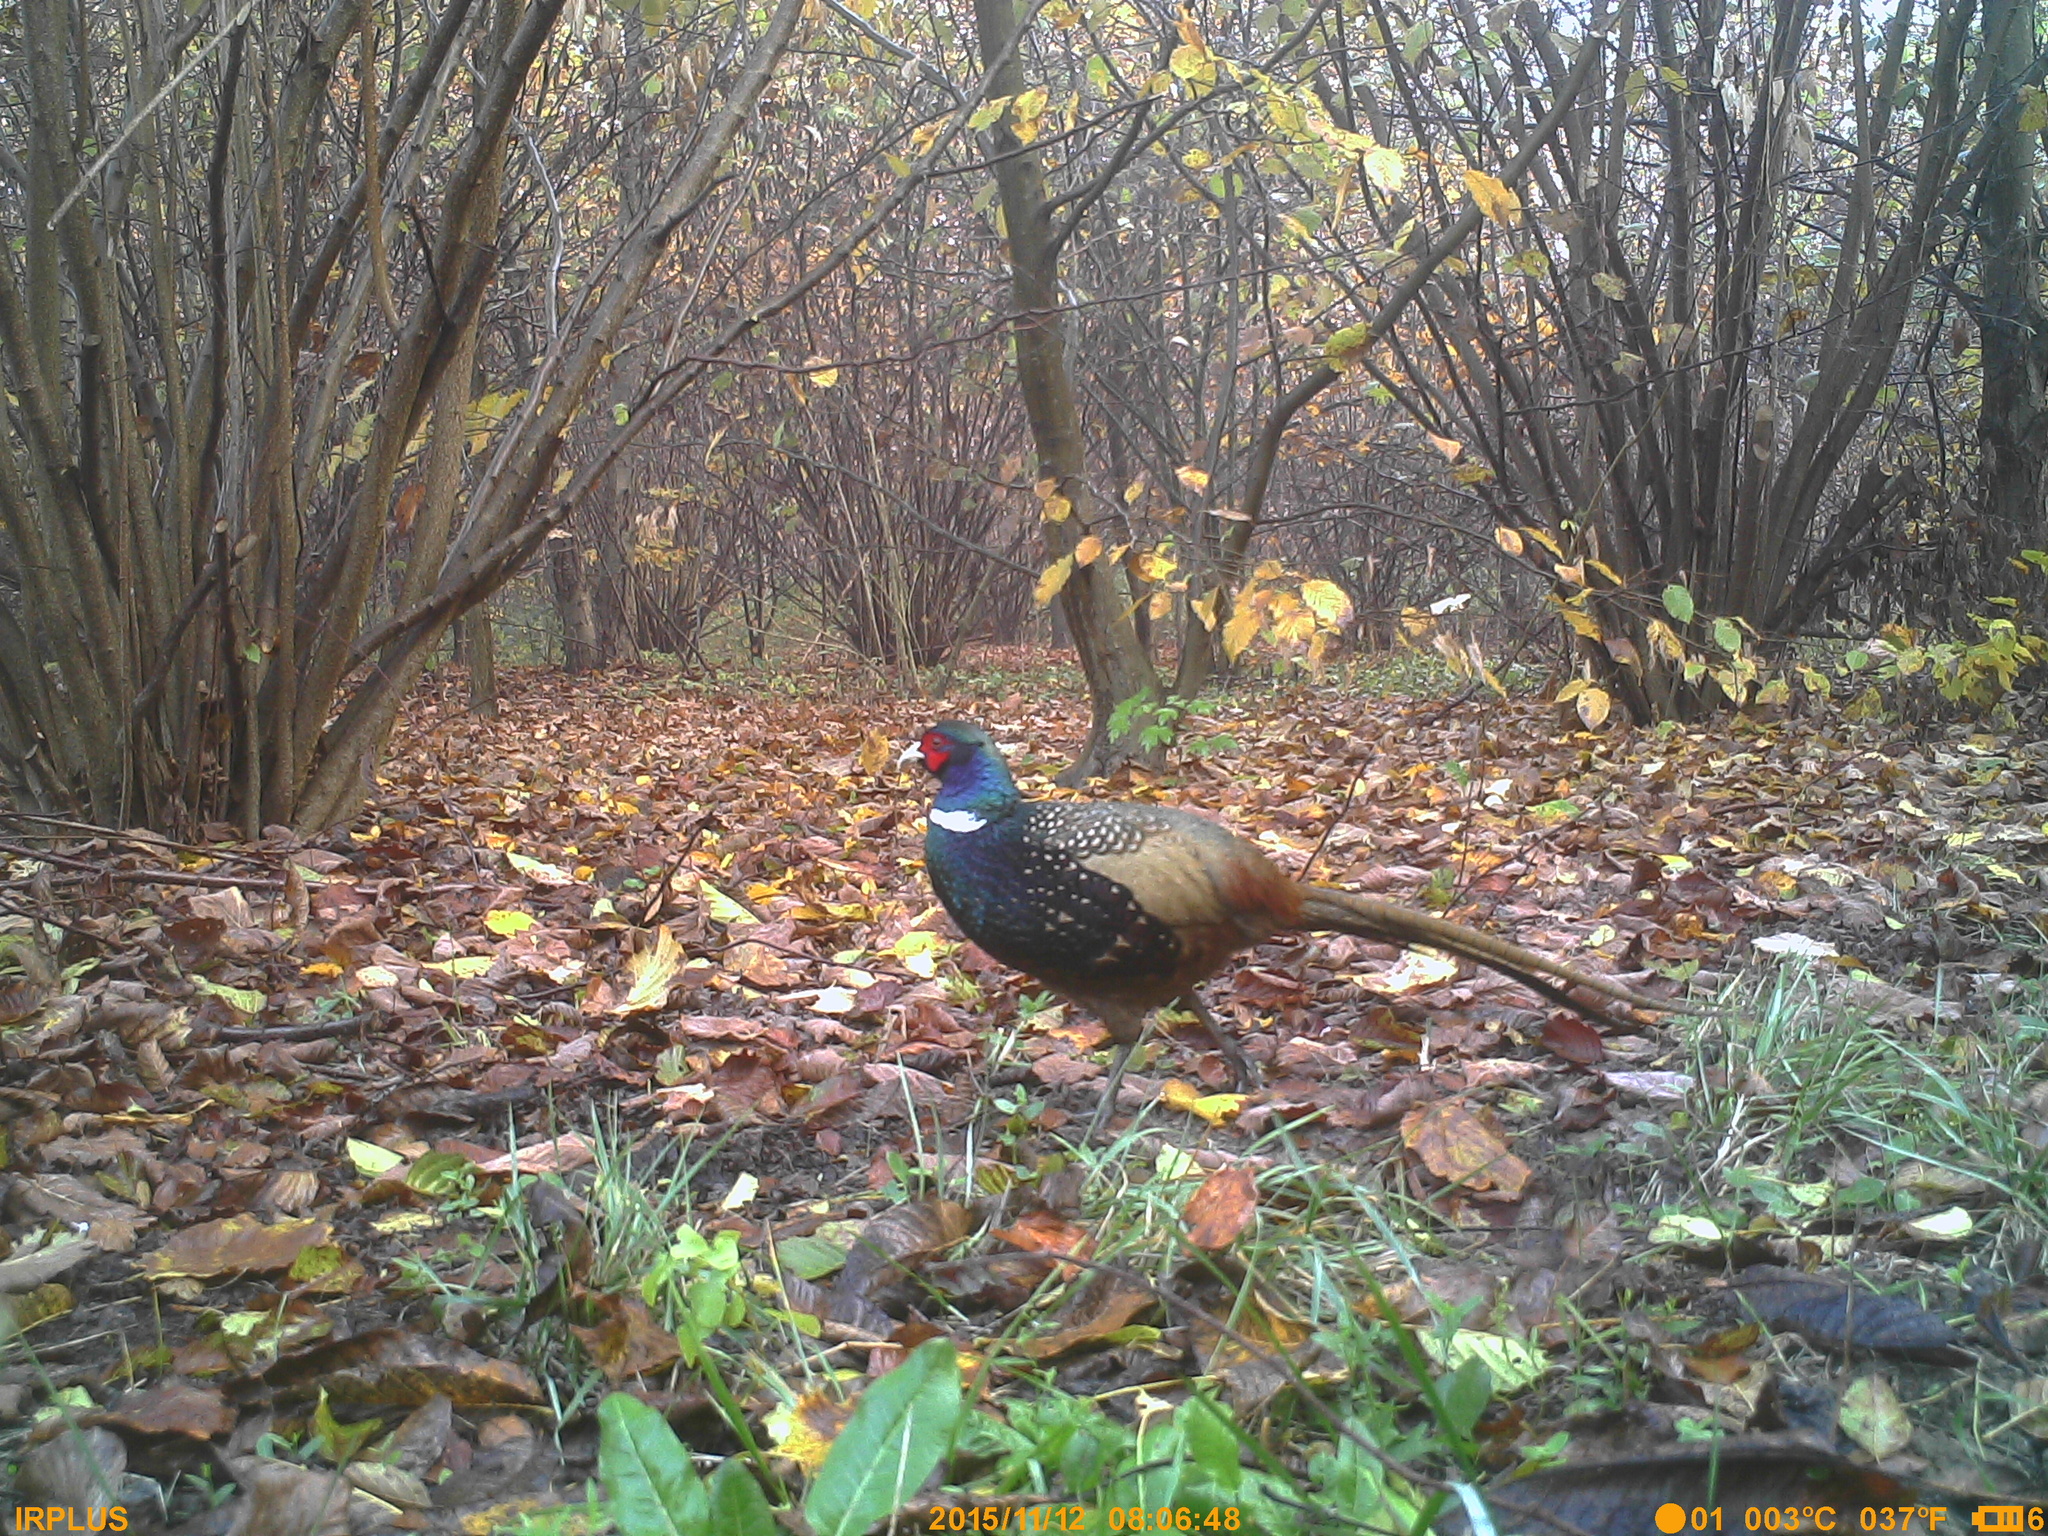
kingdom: Animalia
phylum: Chordata
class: Aves
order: Galliformes
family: Phasianidae
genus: Phasianus
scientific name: Phasianus colchicus
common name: Common pheasant
